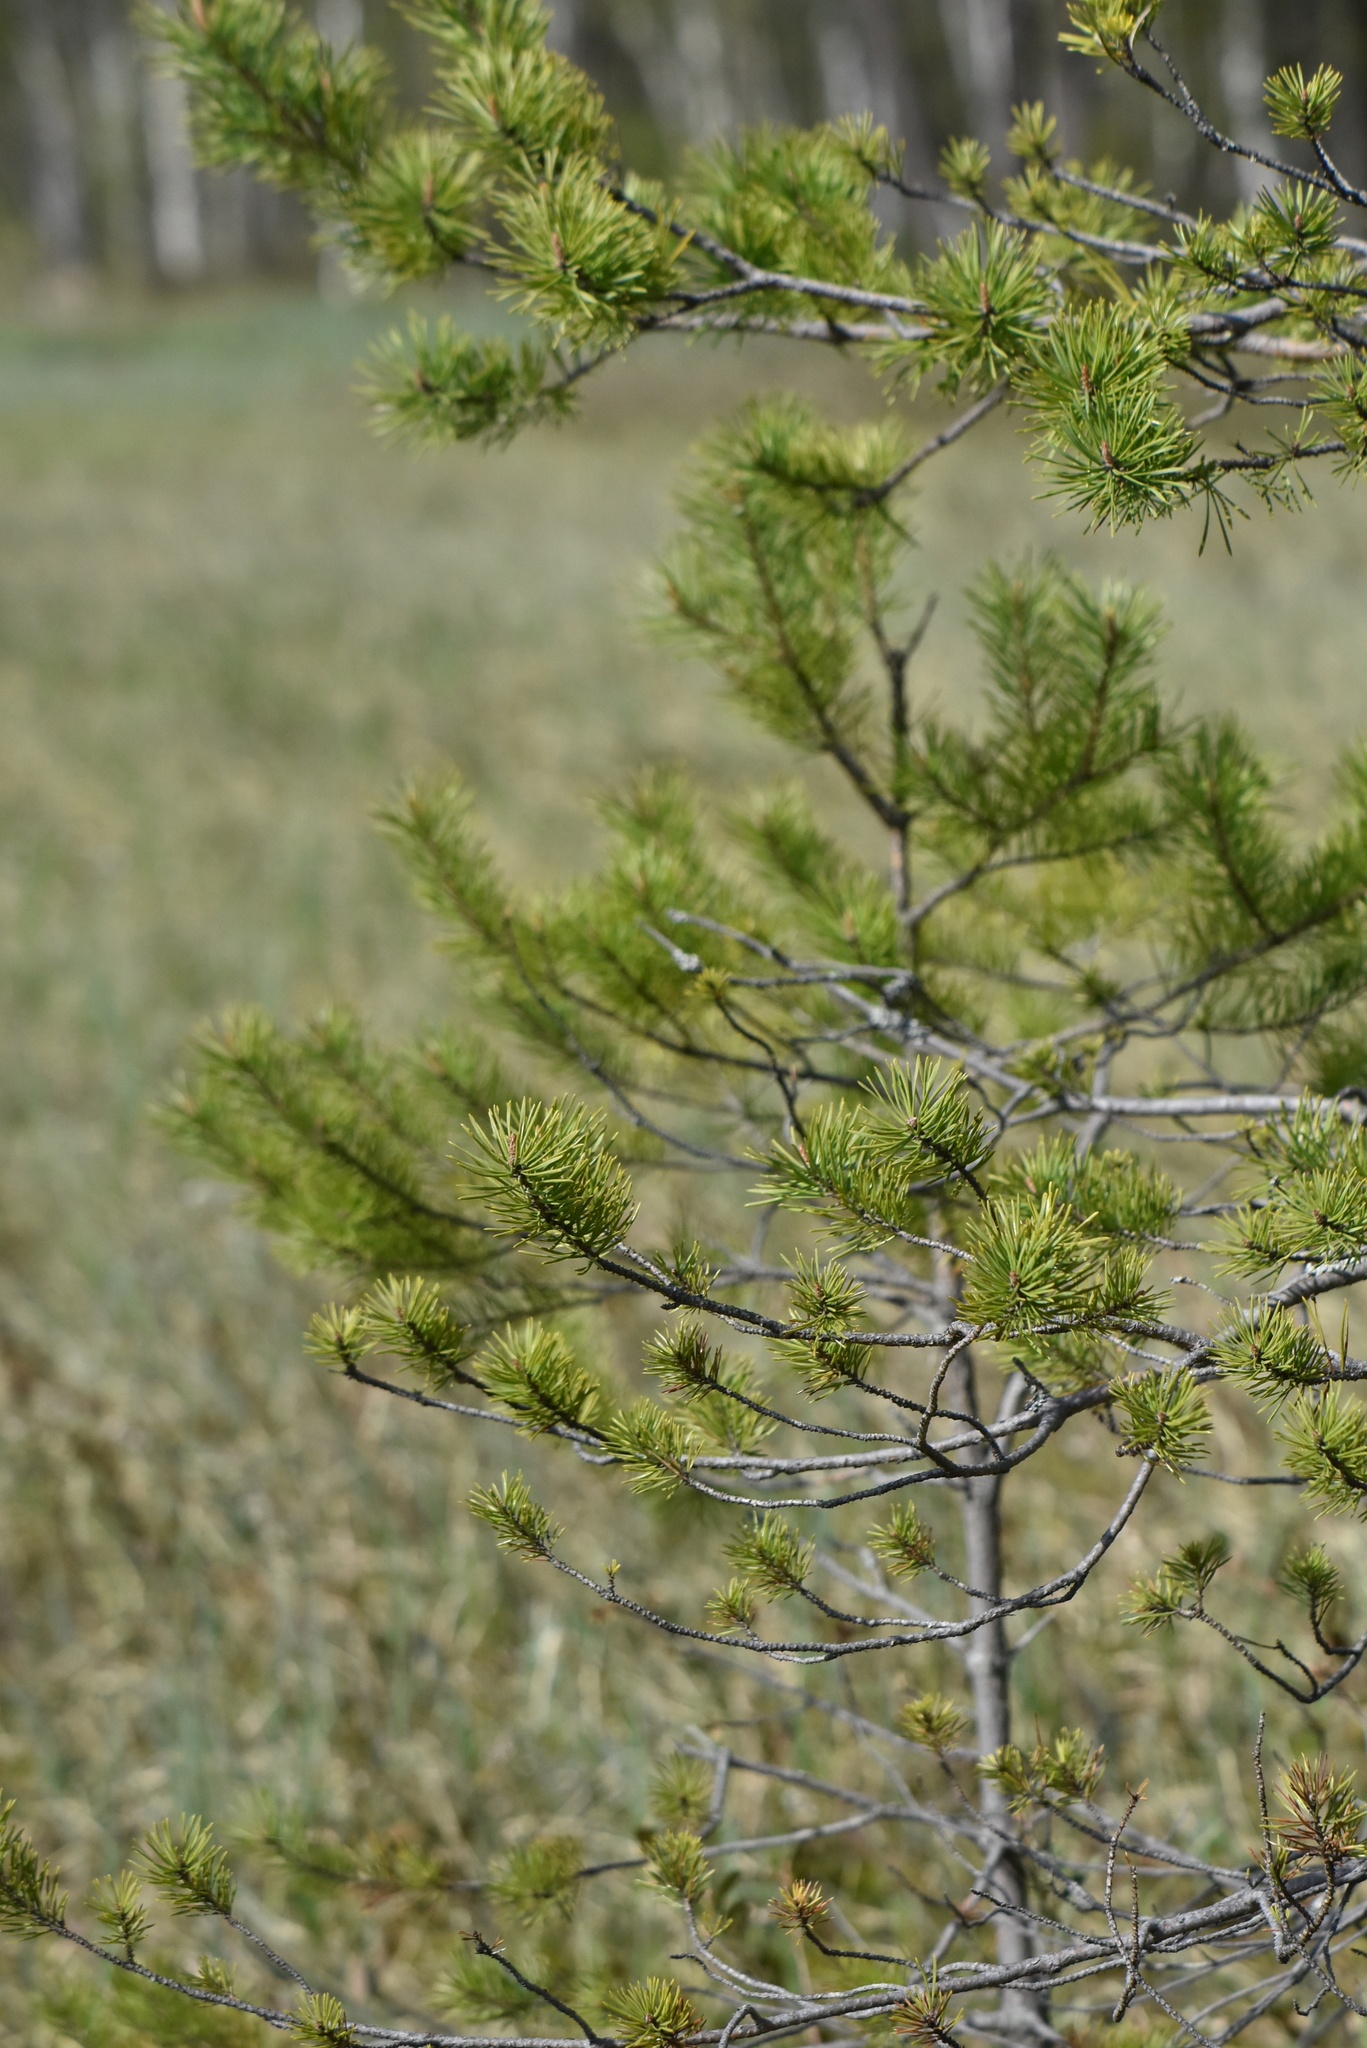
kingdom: Plantae
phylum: Tracheophyta
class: Pinopsida
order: Pinales
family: Pinaceae
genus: Pinus
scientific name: Pinus sylvestris
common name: Scots pine
